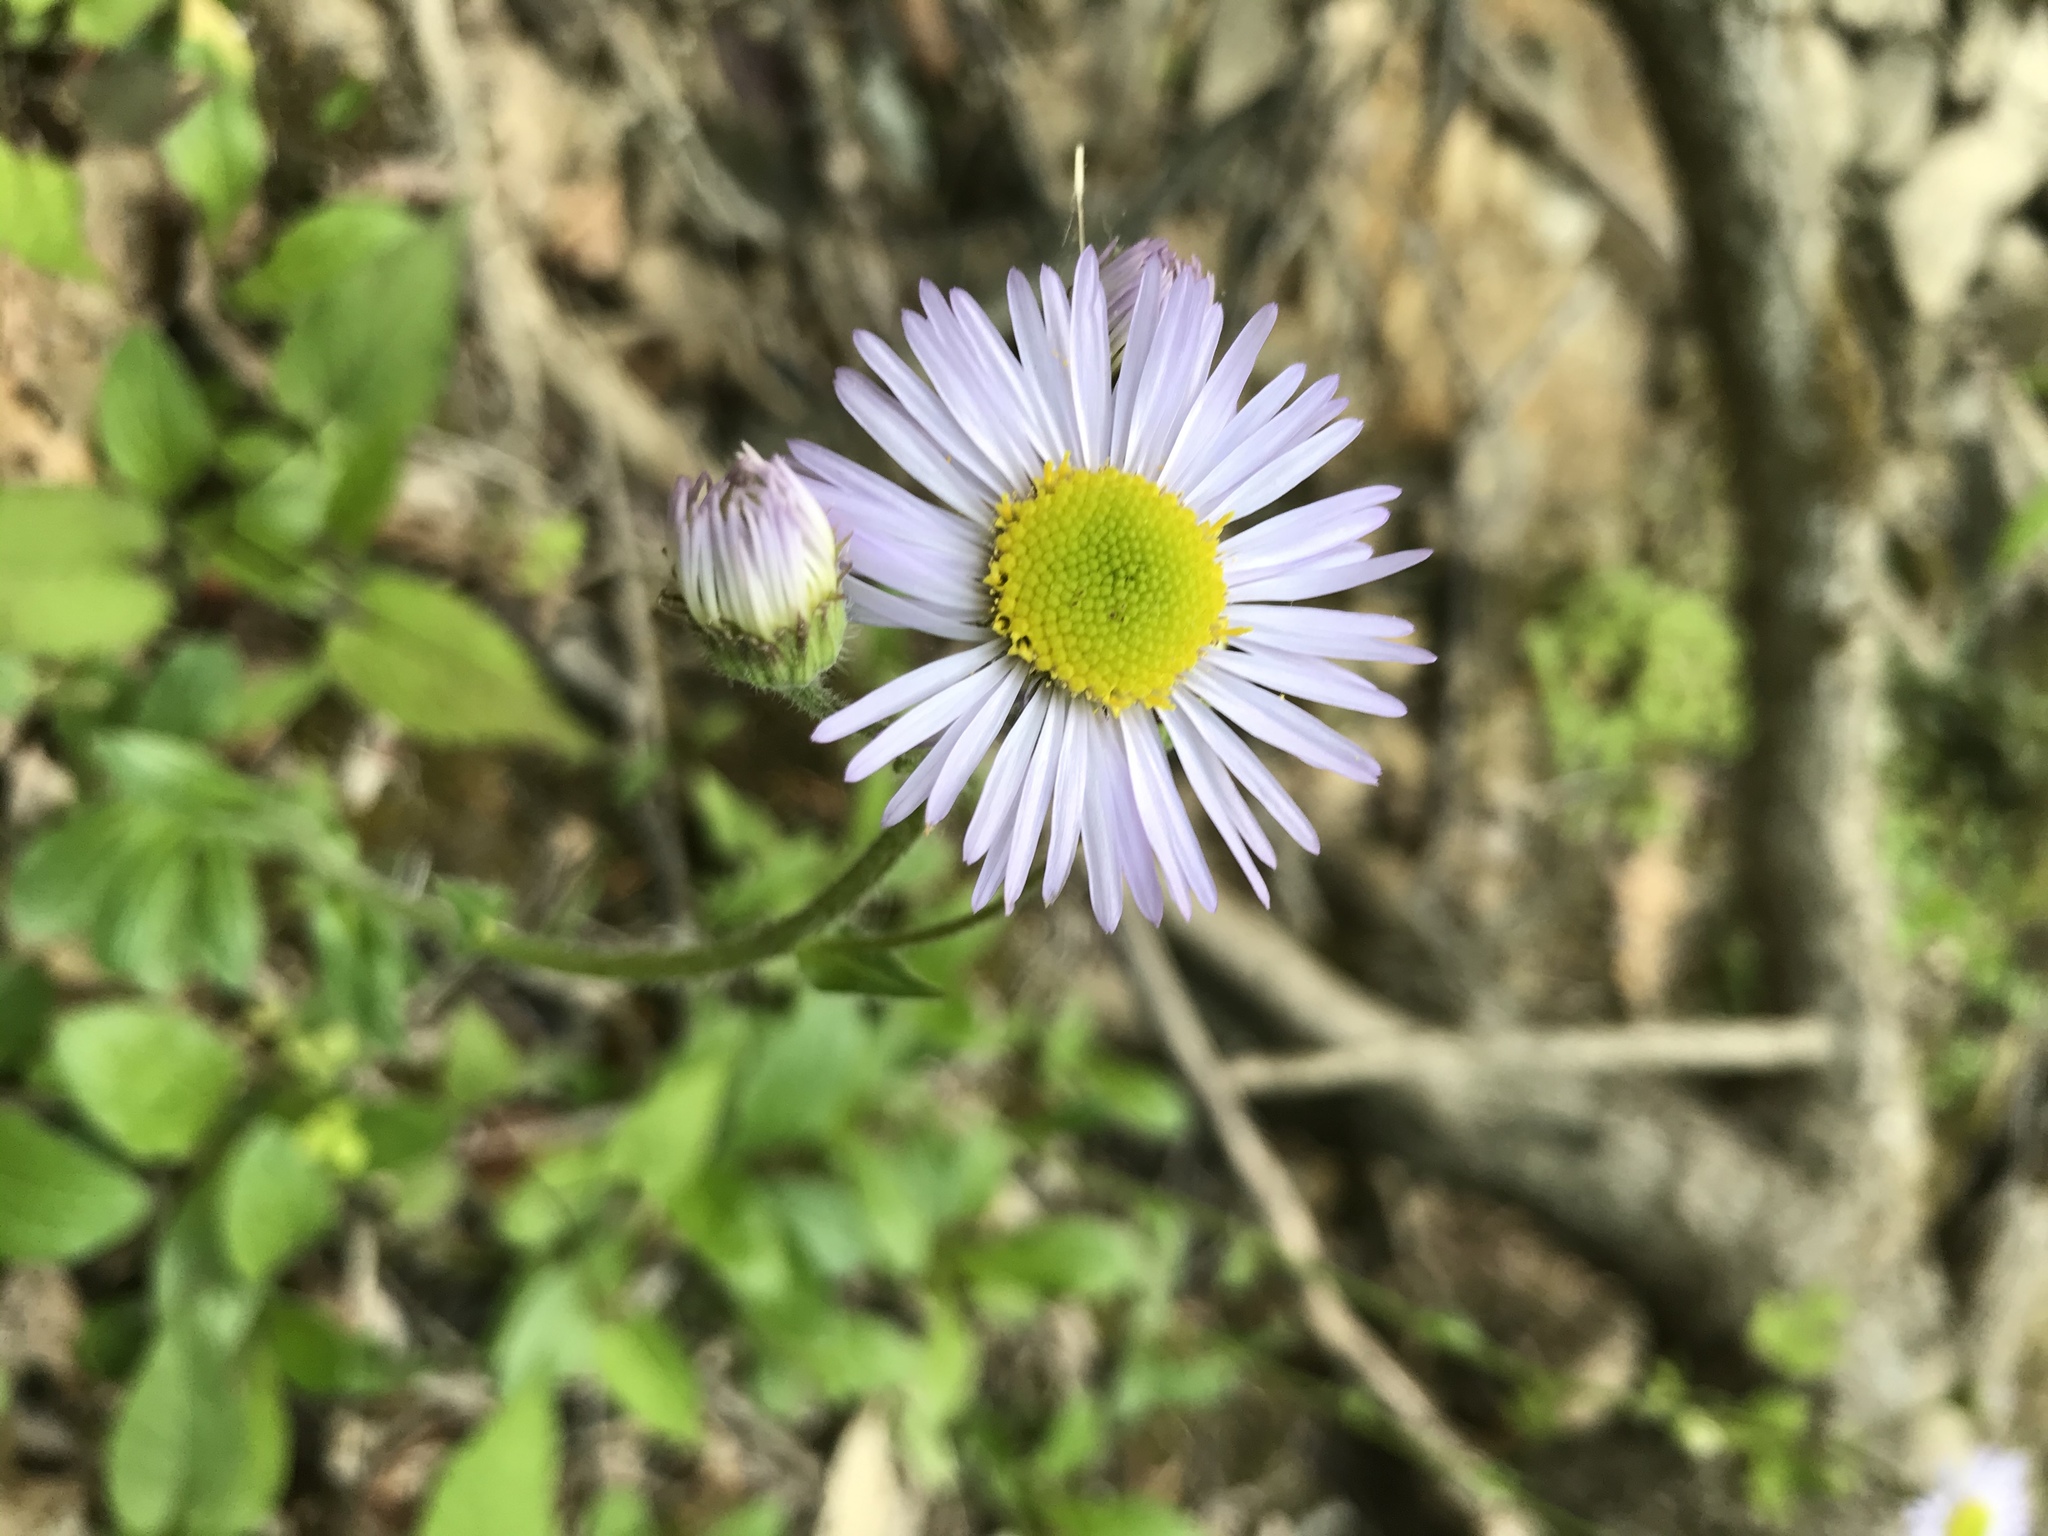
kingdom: Plantae
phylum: Tracheophyta
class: Magnoliopsida
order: Asterales
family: Asteraceae
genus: Erigeron
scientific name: Erigeron pulchellus
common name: Hairy fleabane
